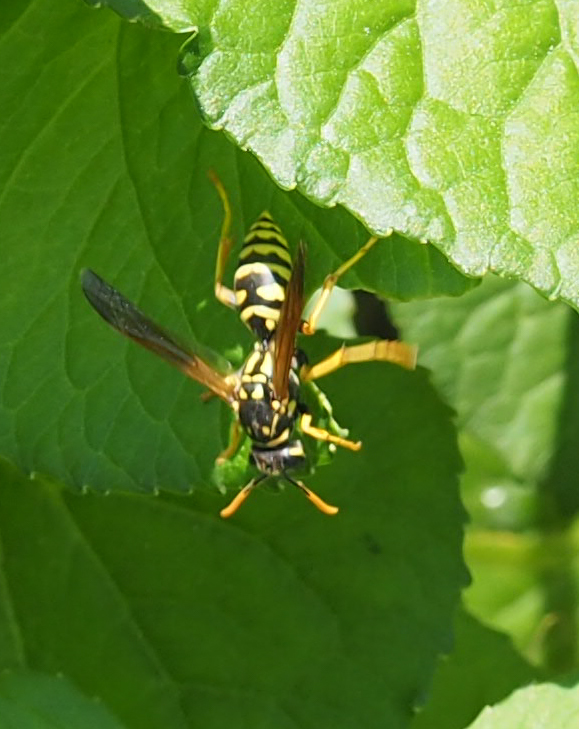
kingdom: Animalia
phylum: Arthropoda
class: Insecta
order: Hymenoptera
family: Eumenidae
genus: Polistes
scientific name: Polistes dominula
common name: Paper wasp
